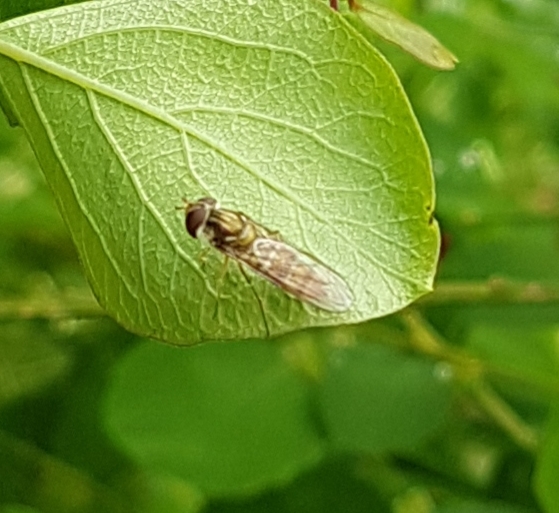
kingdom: Animalia
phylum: Arthropoda
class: Insecta
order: Diptera
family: Syrphidae
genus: Episyrphus
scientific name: Episyrphus balteatus
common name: Marmalade hoverfly
